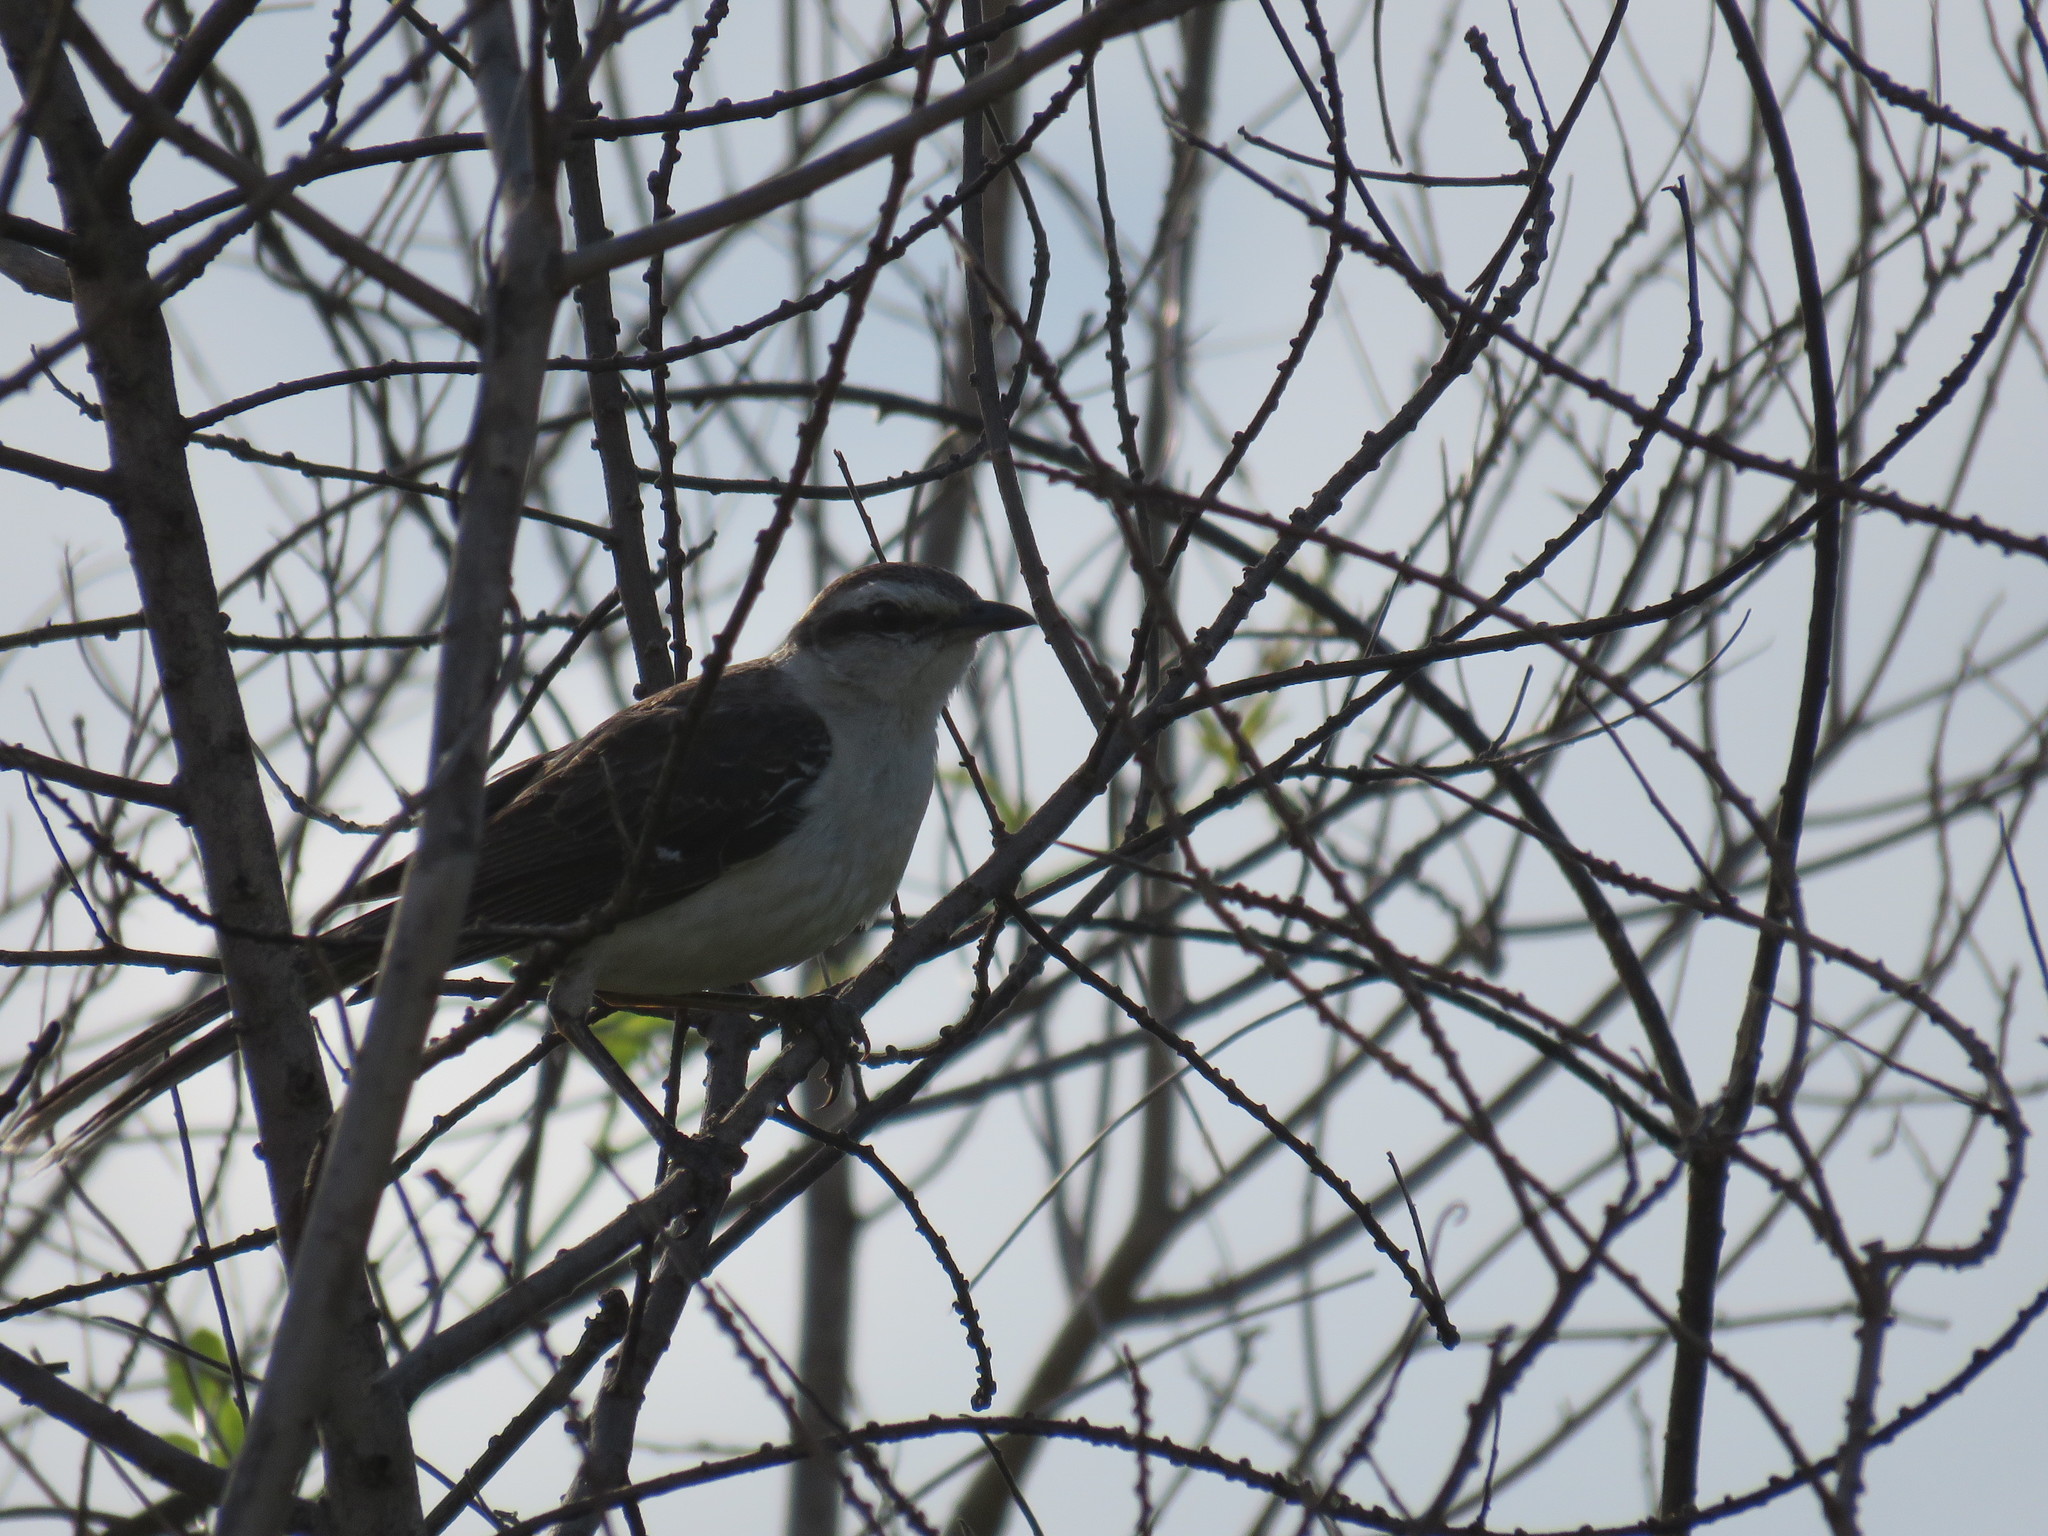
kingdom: Animalia
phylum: Chordata
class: Aves
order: Passeriformes
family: Mimidae
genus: Mimus
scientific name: Mimus saturninus
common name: Chalk-browed mockingbird
